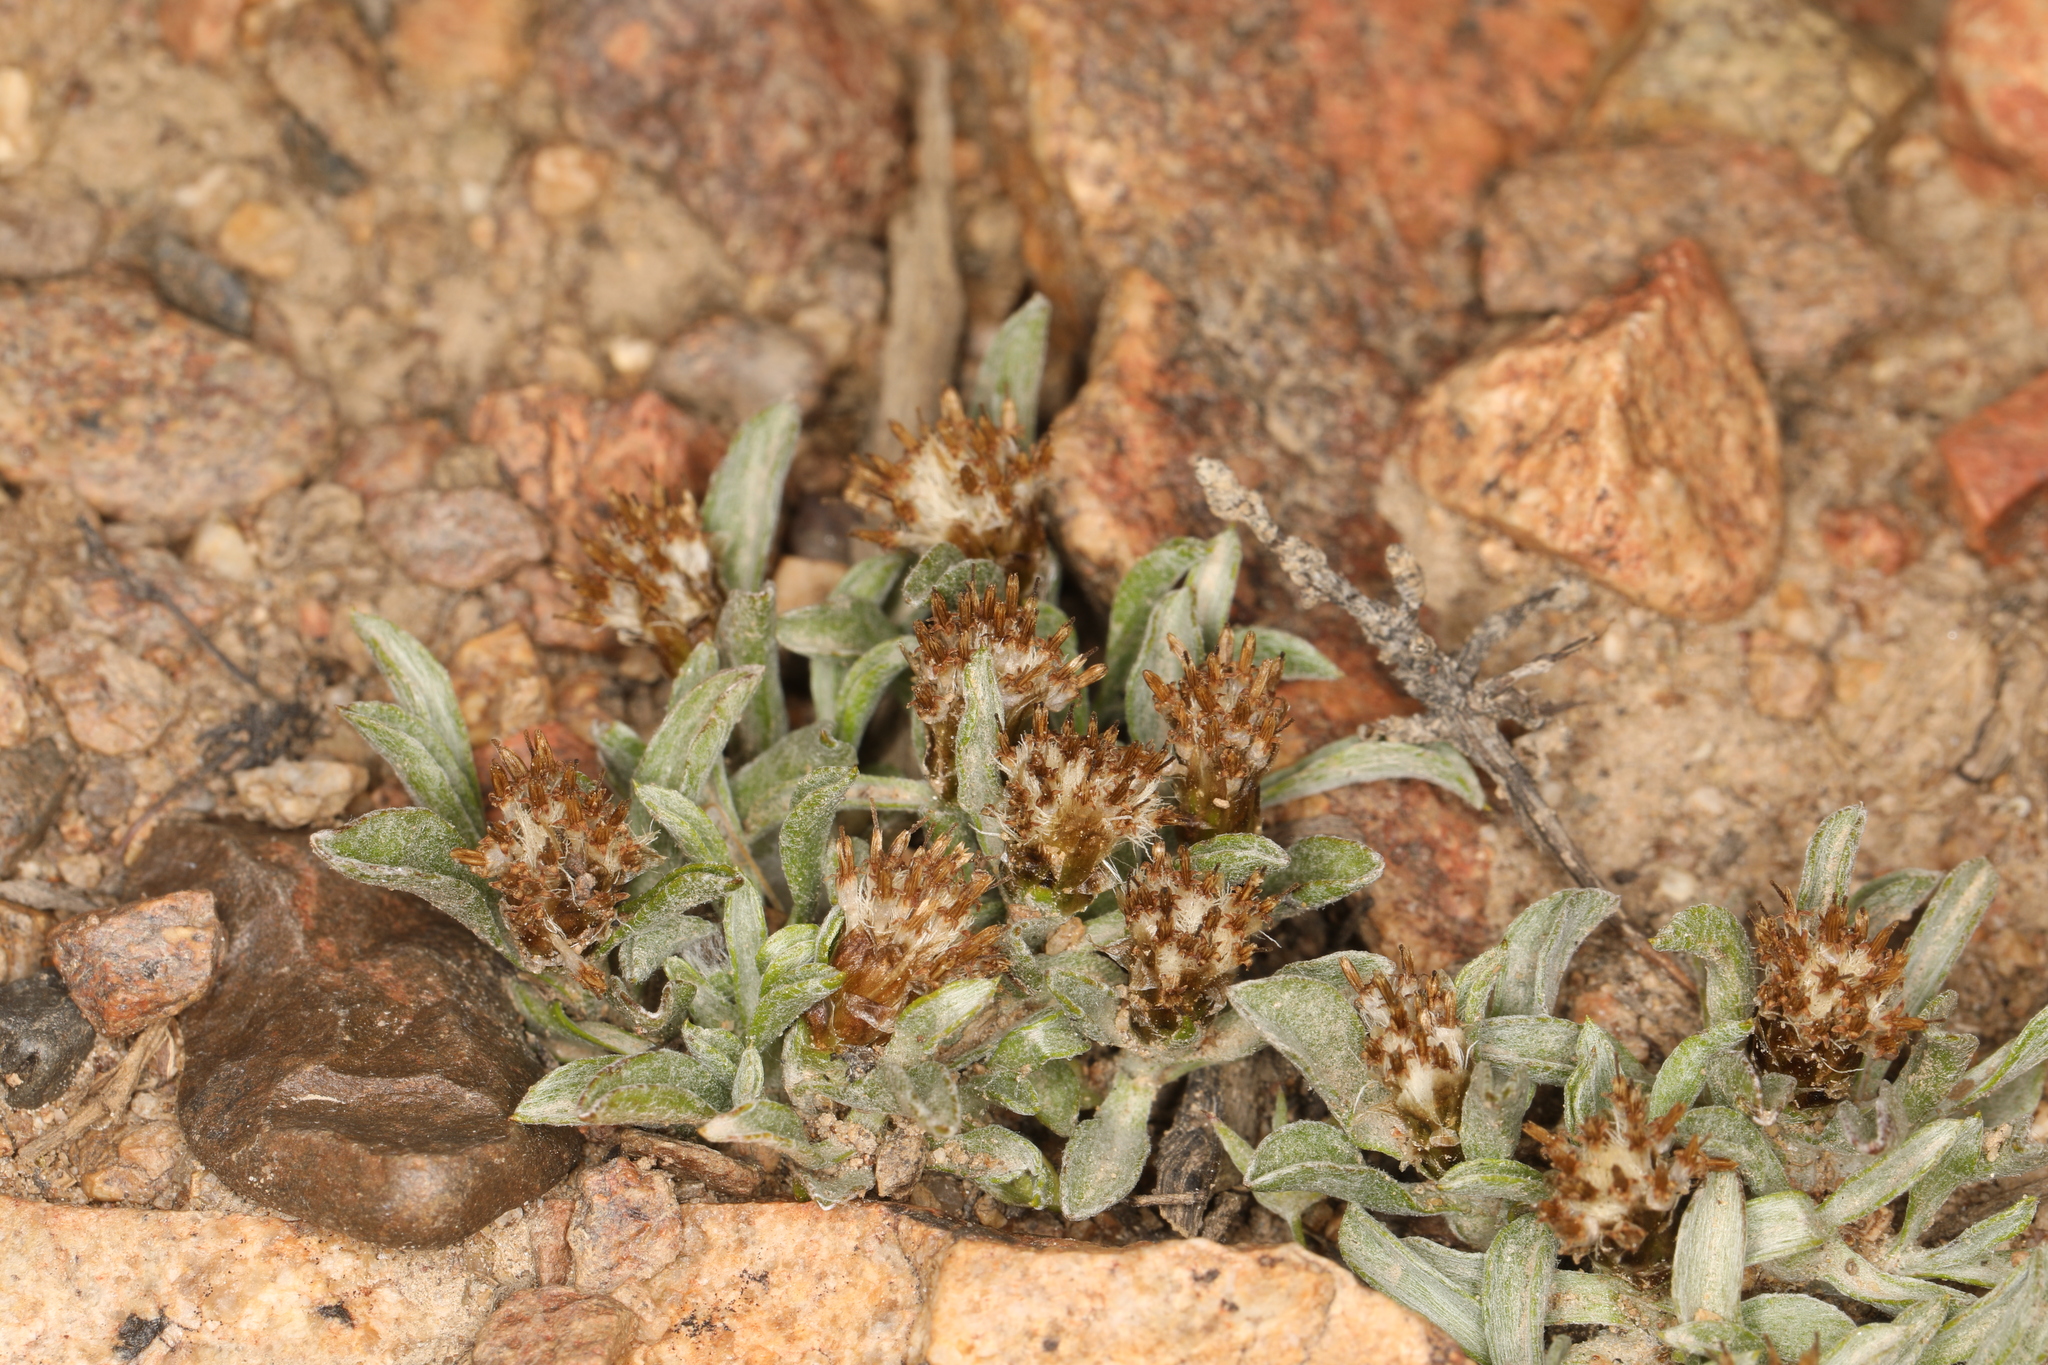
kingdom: Plantae
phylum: Tracheophyta
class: Magnoliopsida
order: Asterales
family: Asteraceae
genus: Antennaria
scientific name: Antennaria dimorpha
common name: Cushion pussytoes
